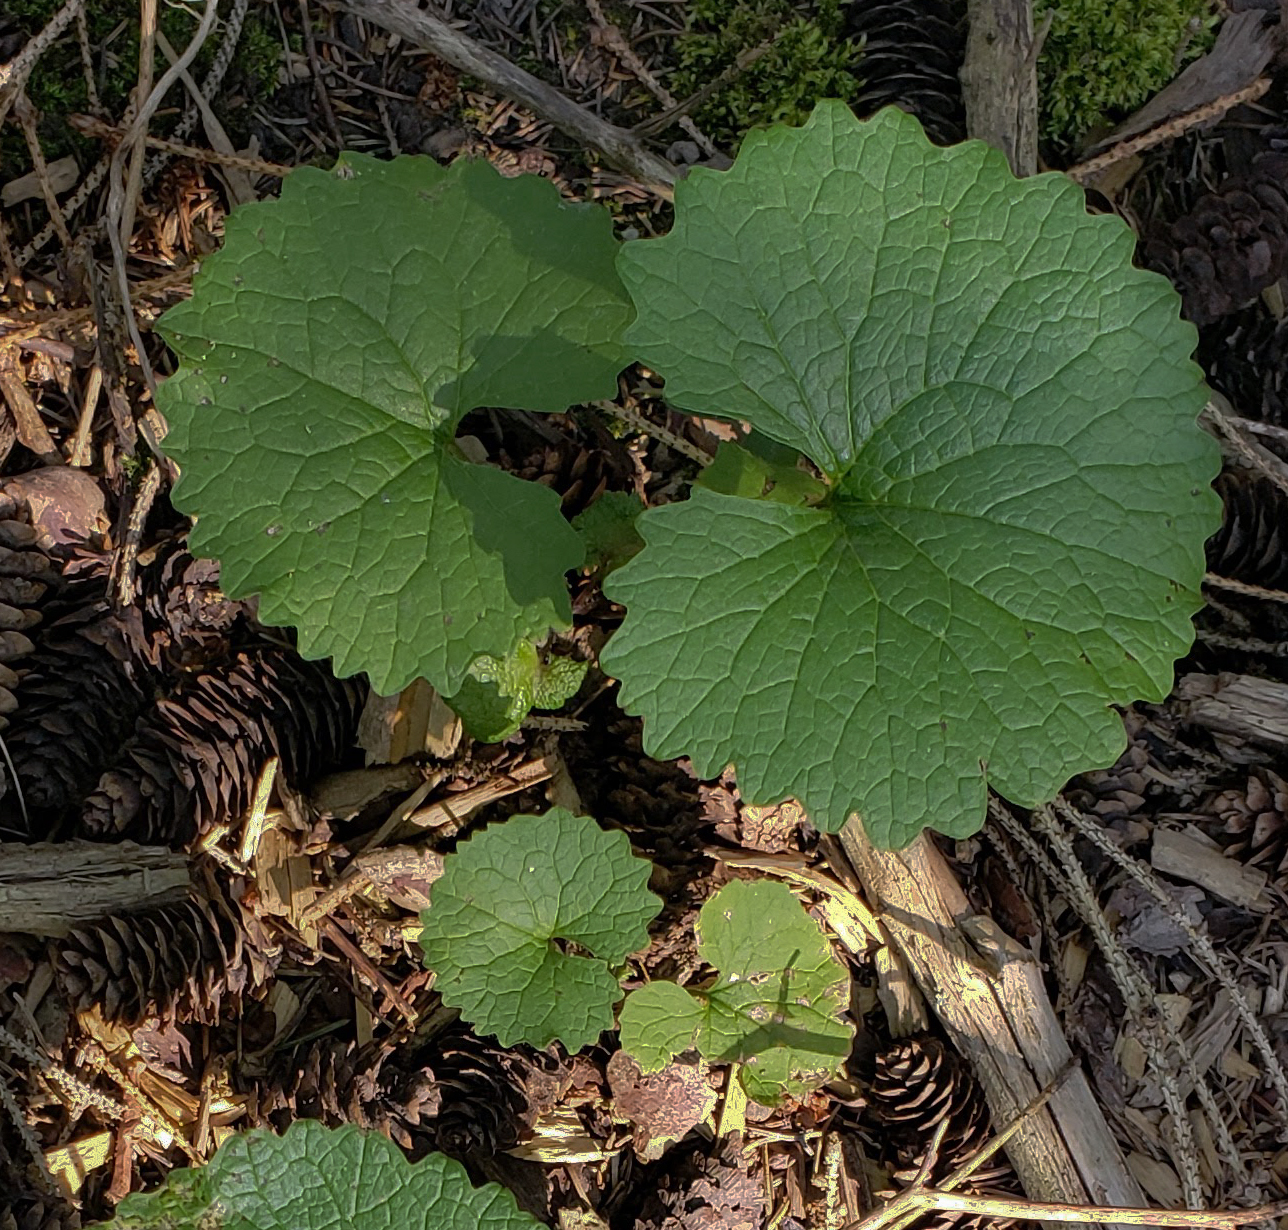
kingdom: Plantae
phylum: Tracheophyta
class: Magnoliopsida
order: Brassicales
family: Brassicaceae
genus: Alliaria
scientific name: Alliaria petiolata
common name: Garlic mustard
